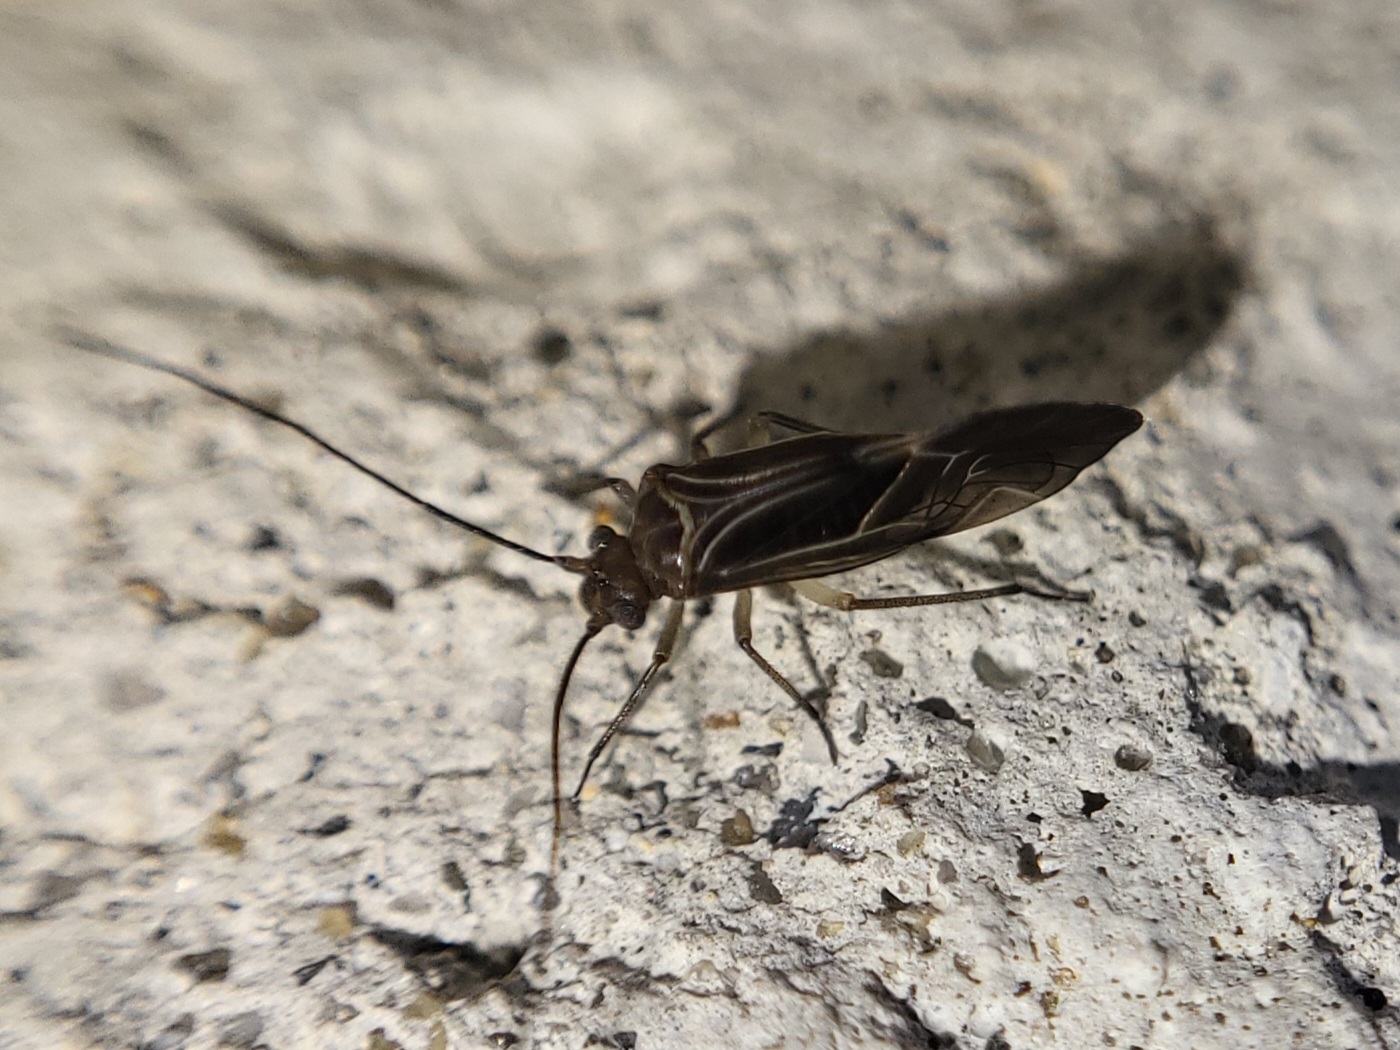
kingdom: Animalia
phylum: Arthropoda
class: Insecta
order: Psocodea
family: Psocidae
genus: Cerastipsocus
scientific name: Cerastipsocus venosus
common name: Tree cattle
